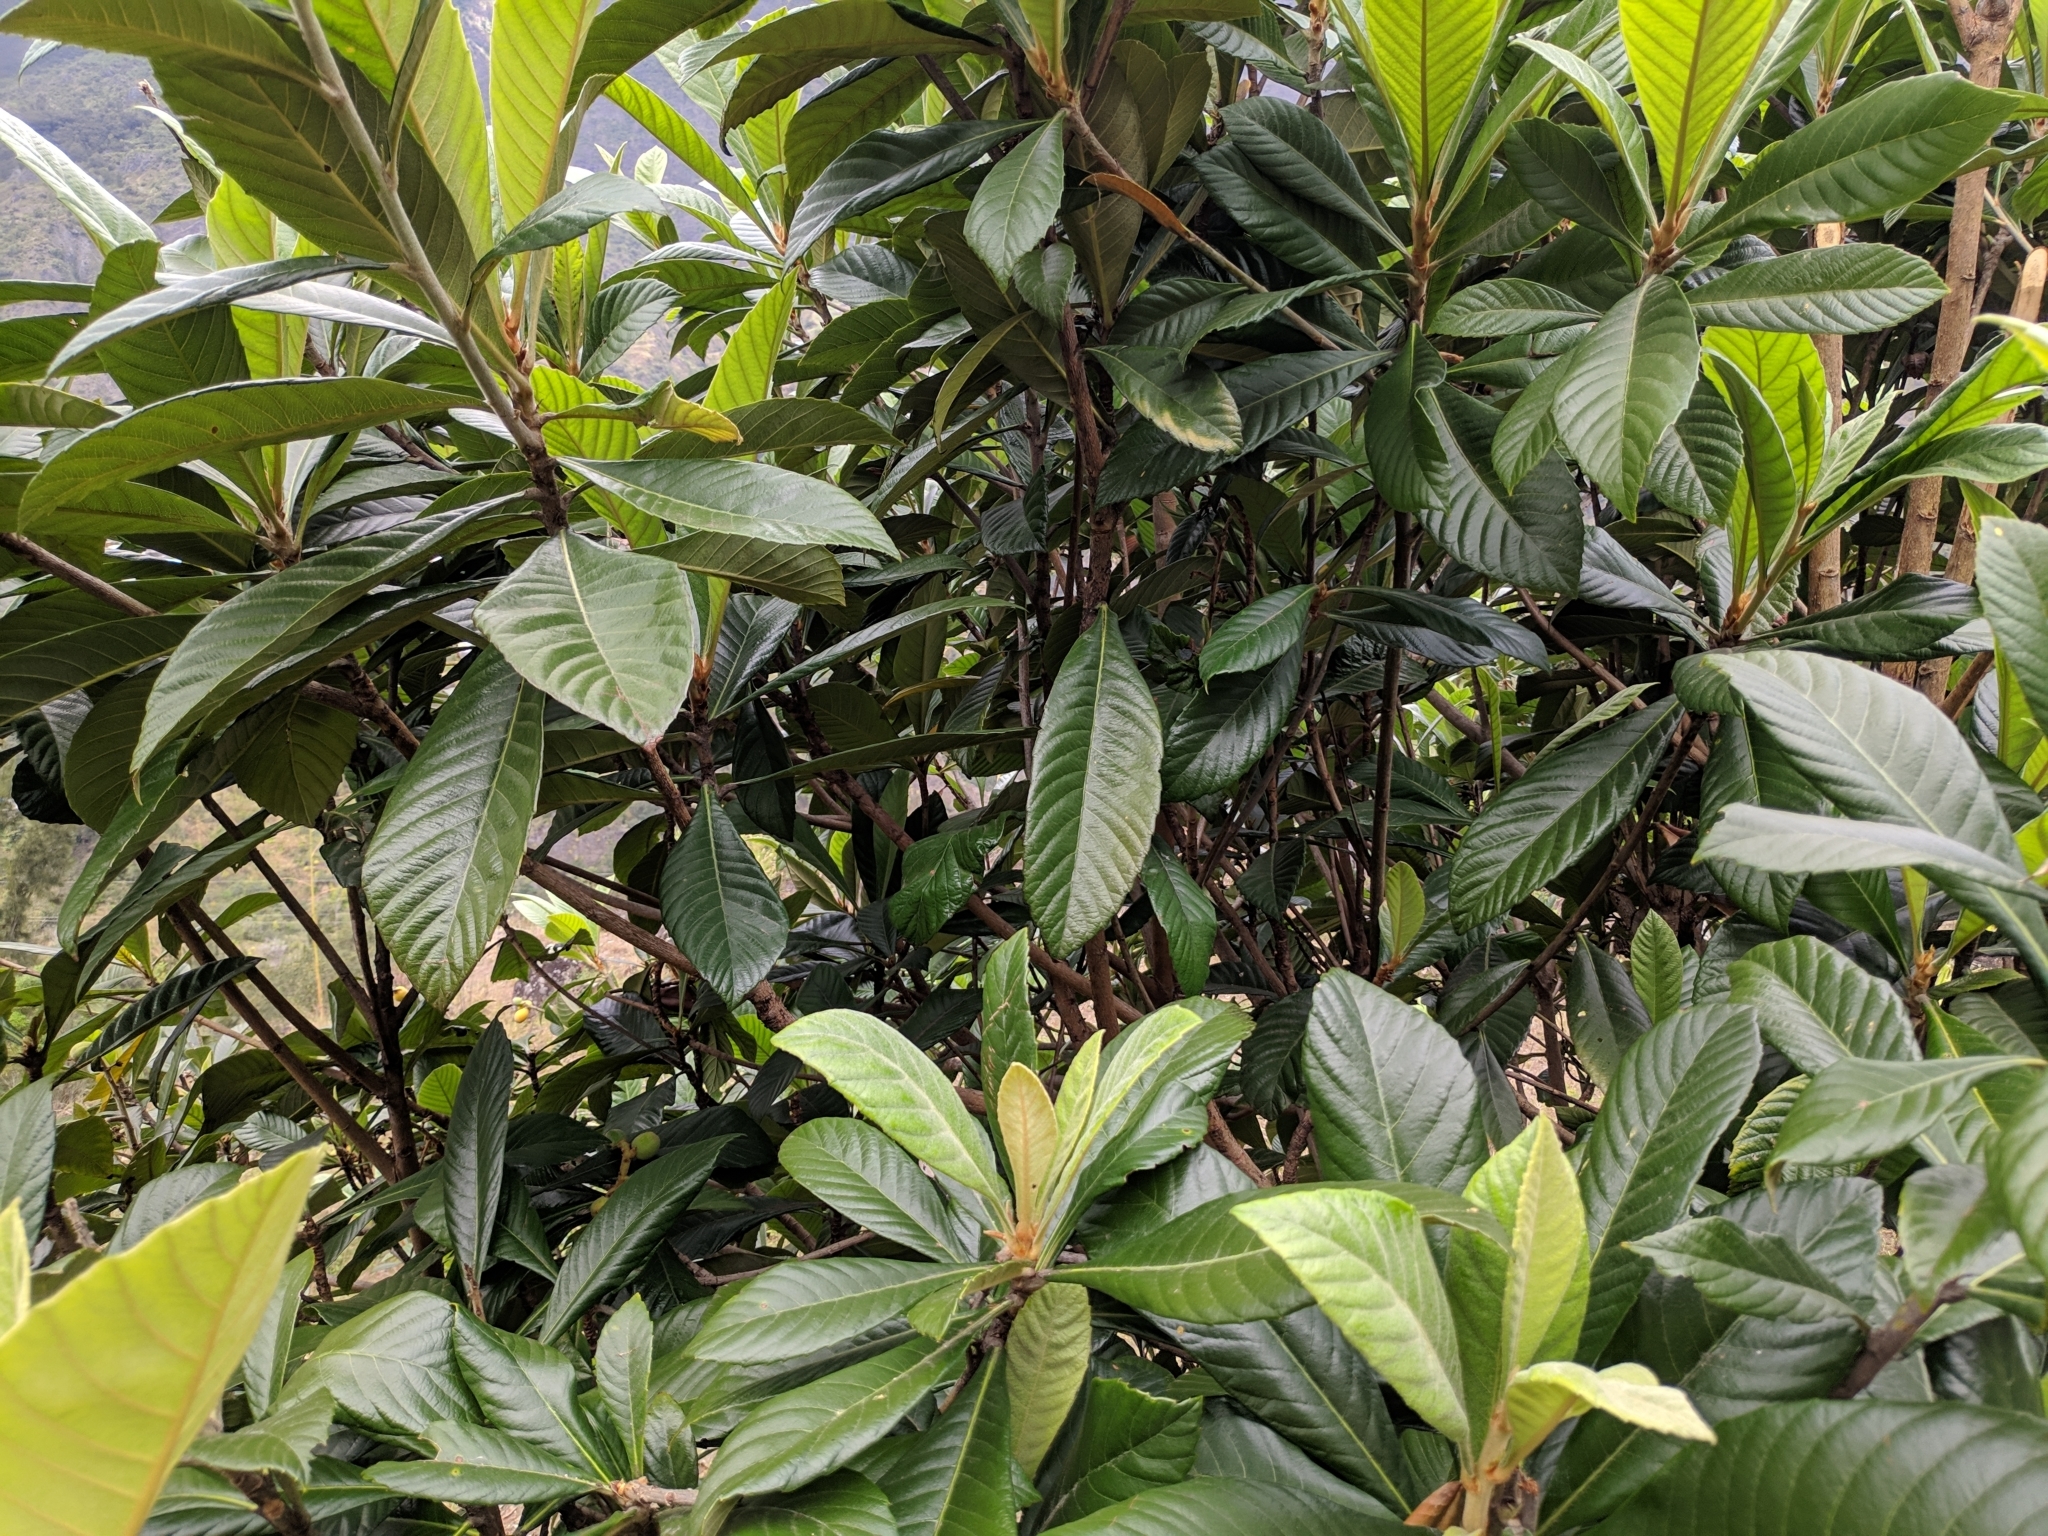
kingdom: Plantae
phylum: Tracheophyta
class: Magnoliopsida
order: Rosales
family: Rosaceae
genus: Rhaphiolepis
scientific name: Rhaphiolepis bibas
